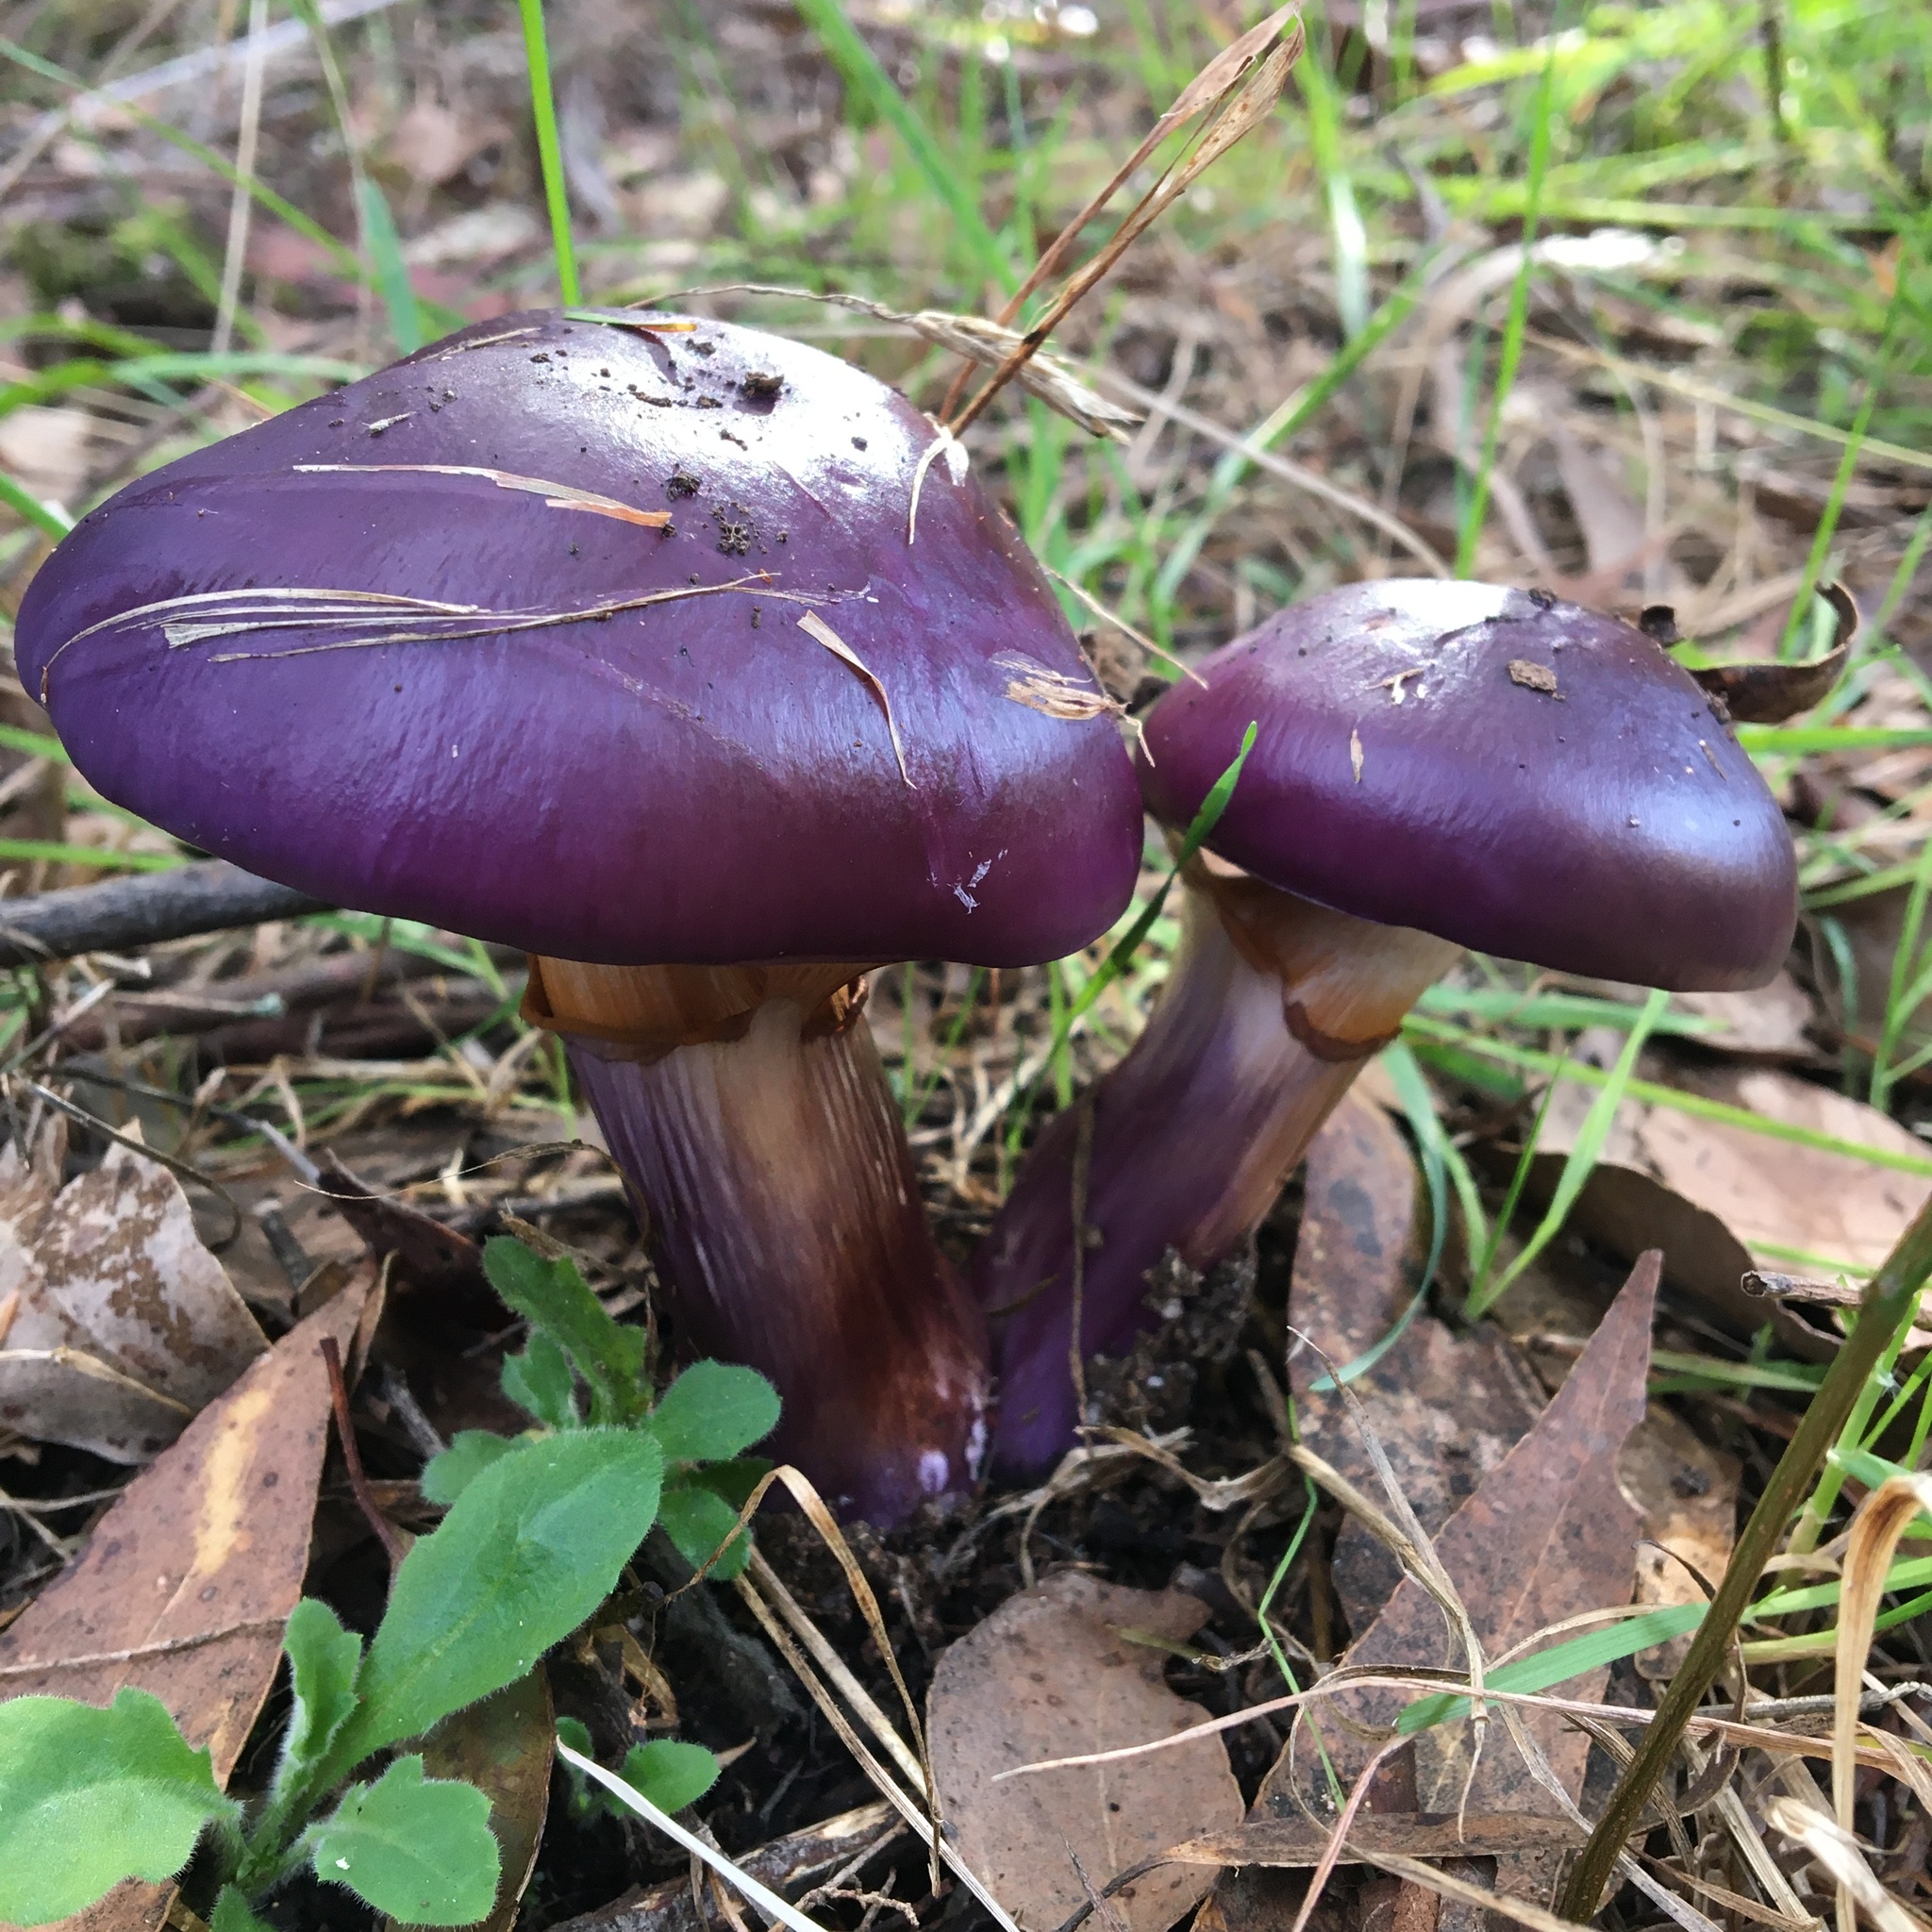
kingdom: Fungi
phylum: Basidiomycota
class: Agaricomycetes
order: Agaricales
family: Cortinariaceae
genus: Cortinarius
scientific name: Cortinarius archeri
